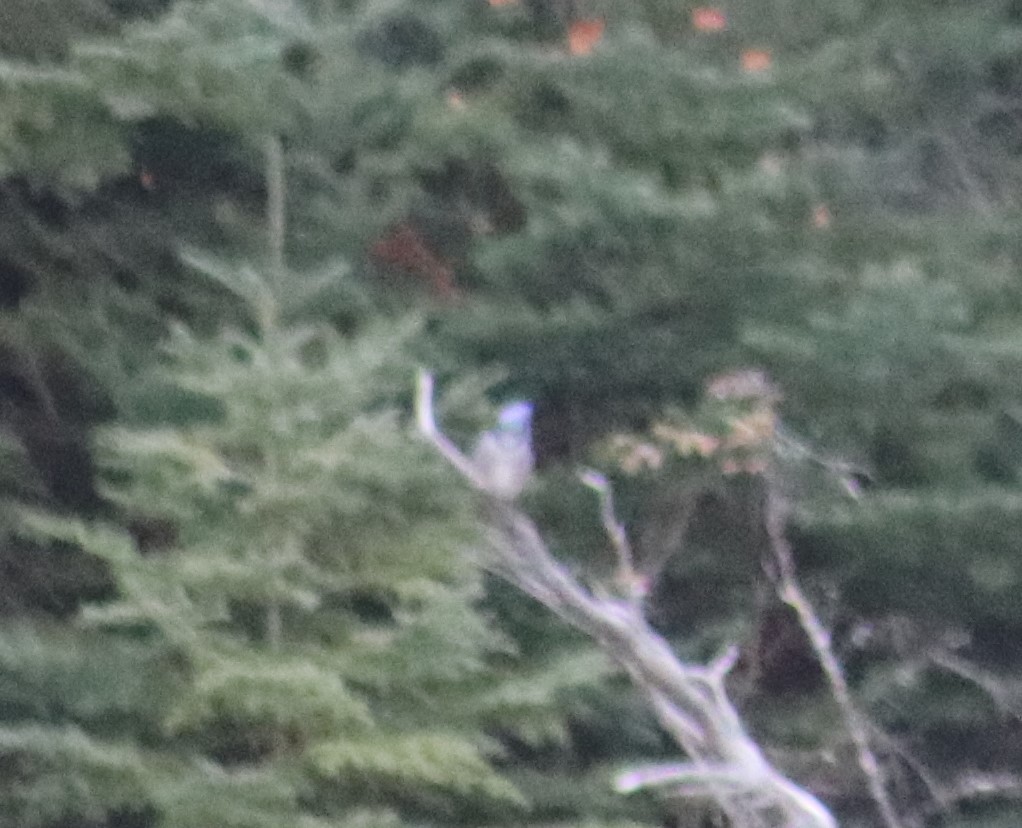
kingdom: Animalia
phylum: Chordata
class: Aves
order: Passeriformes
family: Corvidae
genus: Cyanocitta
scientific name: Cyanocitta cristata
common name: Blue jay
